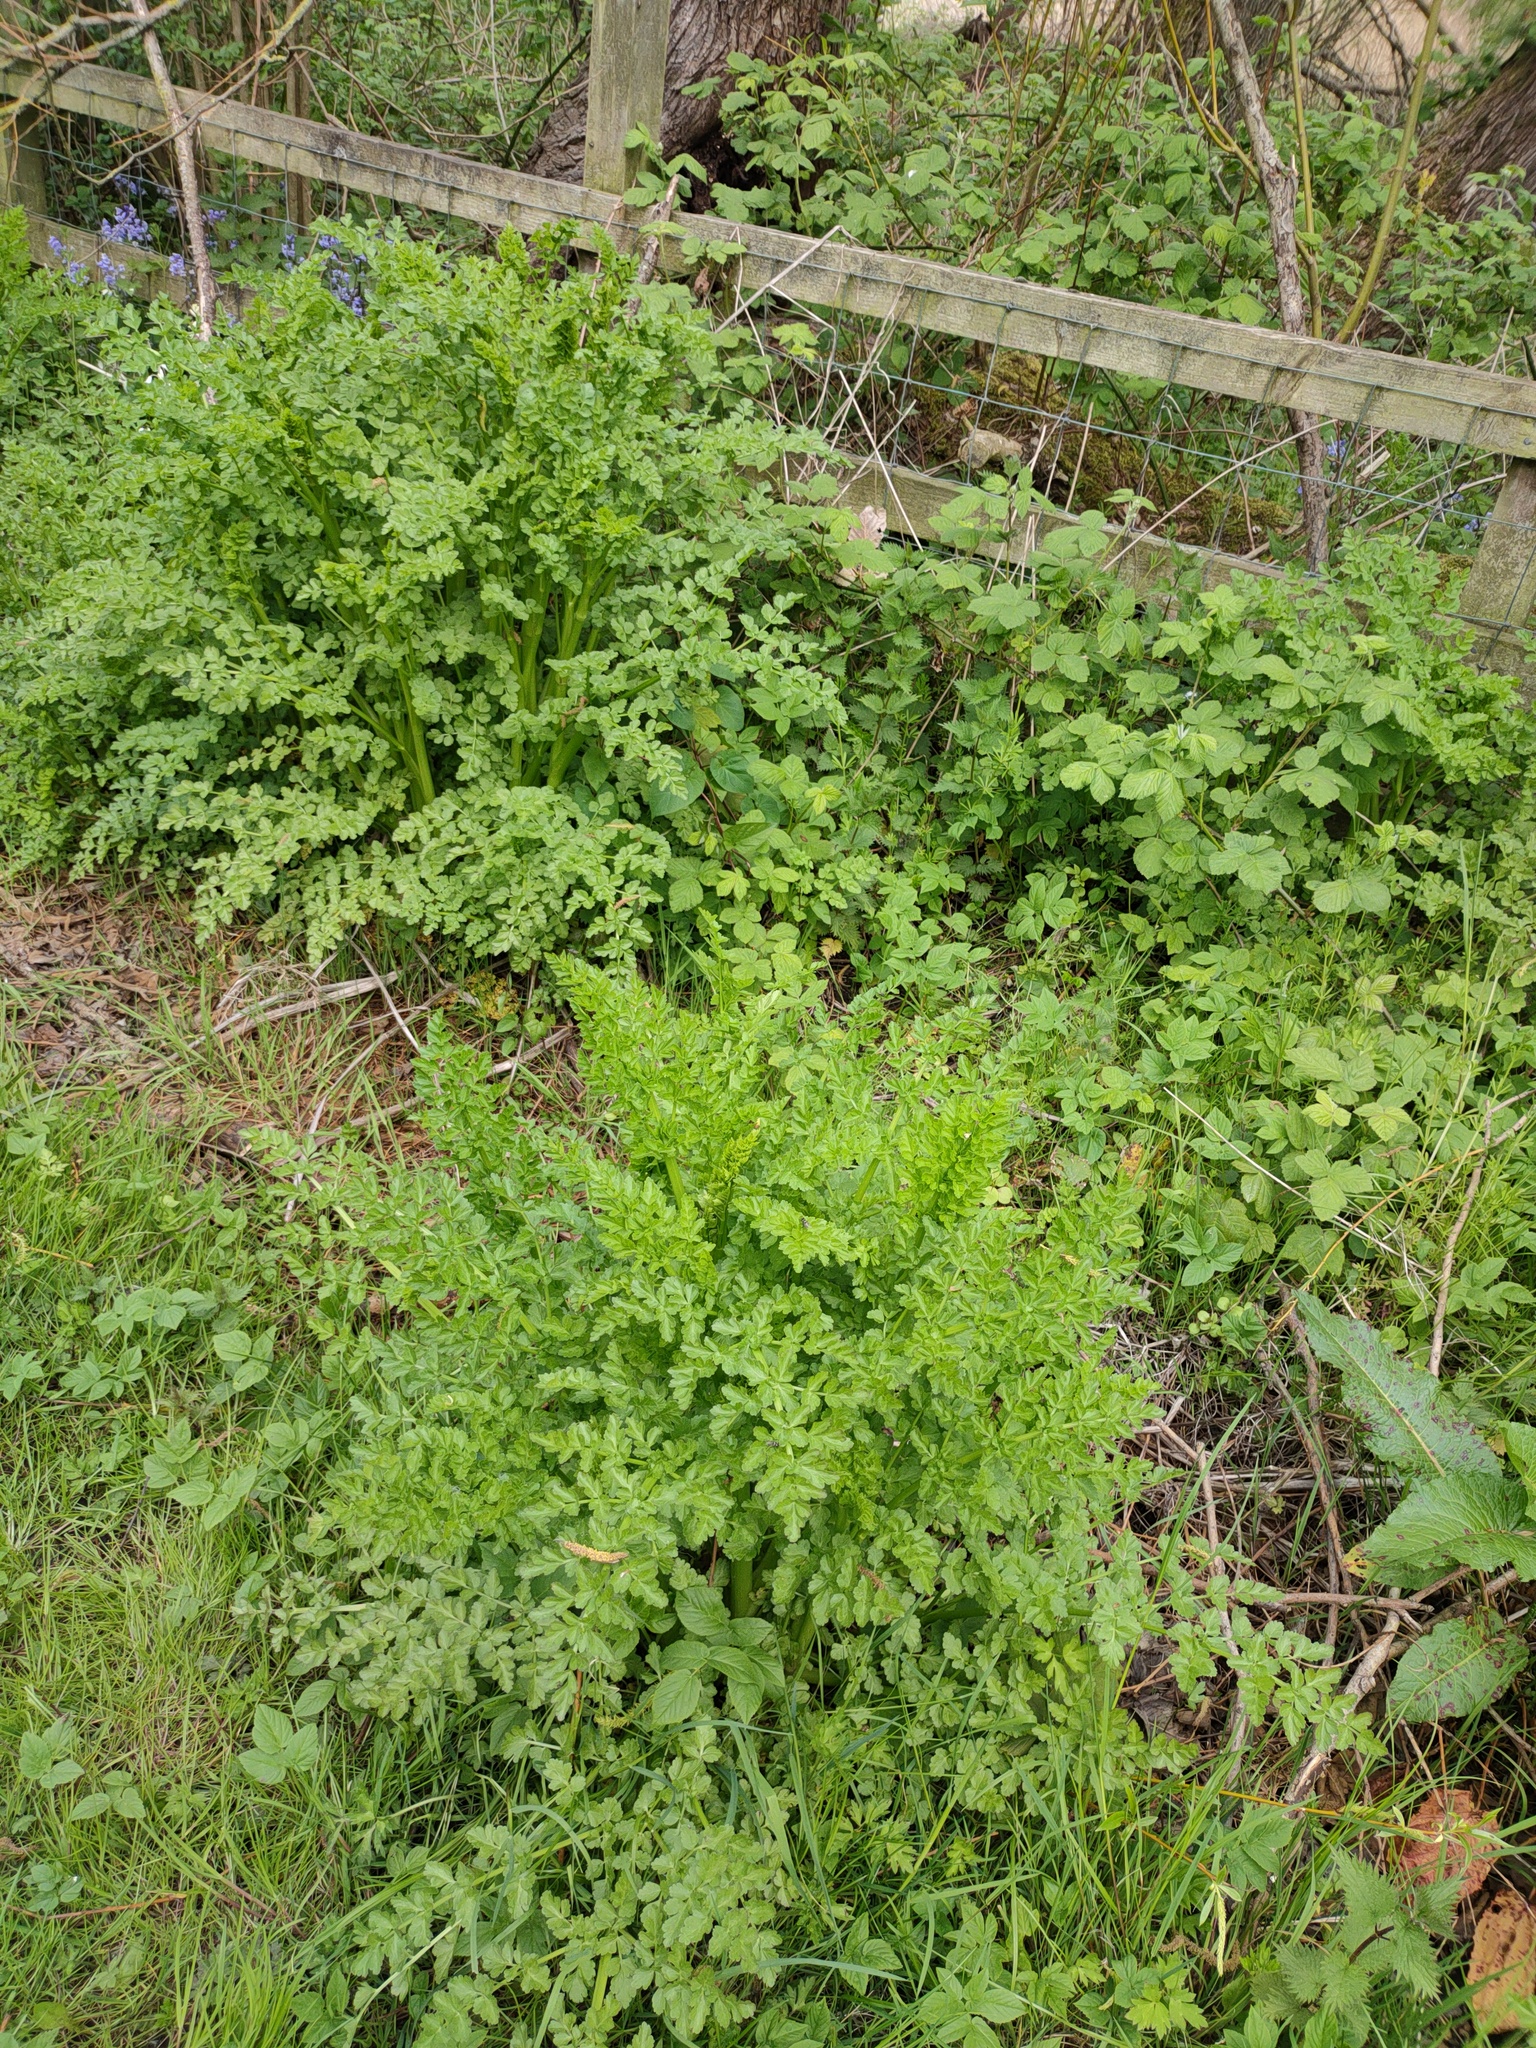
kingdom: Plantae
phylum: Tracheophyta
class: Magnoliopsida
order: Apiales
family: Apiaceae
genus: Oenanthe
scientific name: Oenanthe crocata
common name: Hemlock water-dropwort
